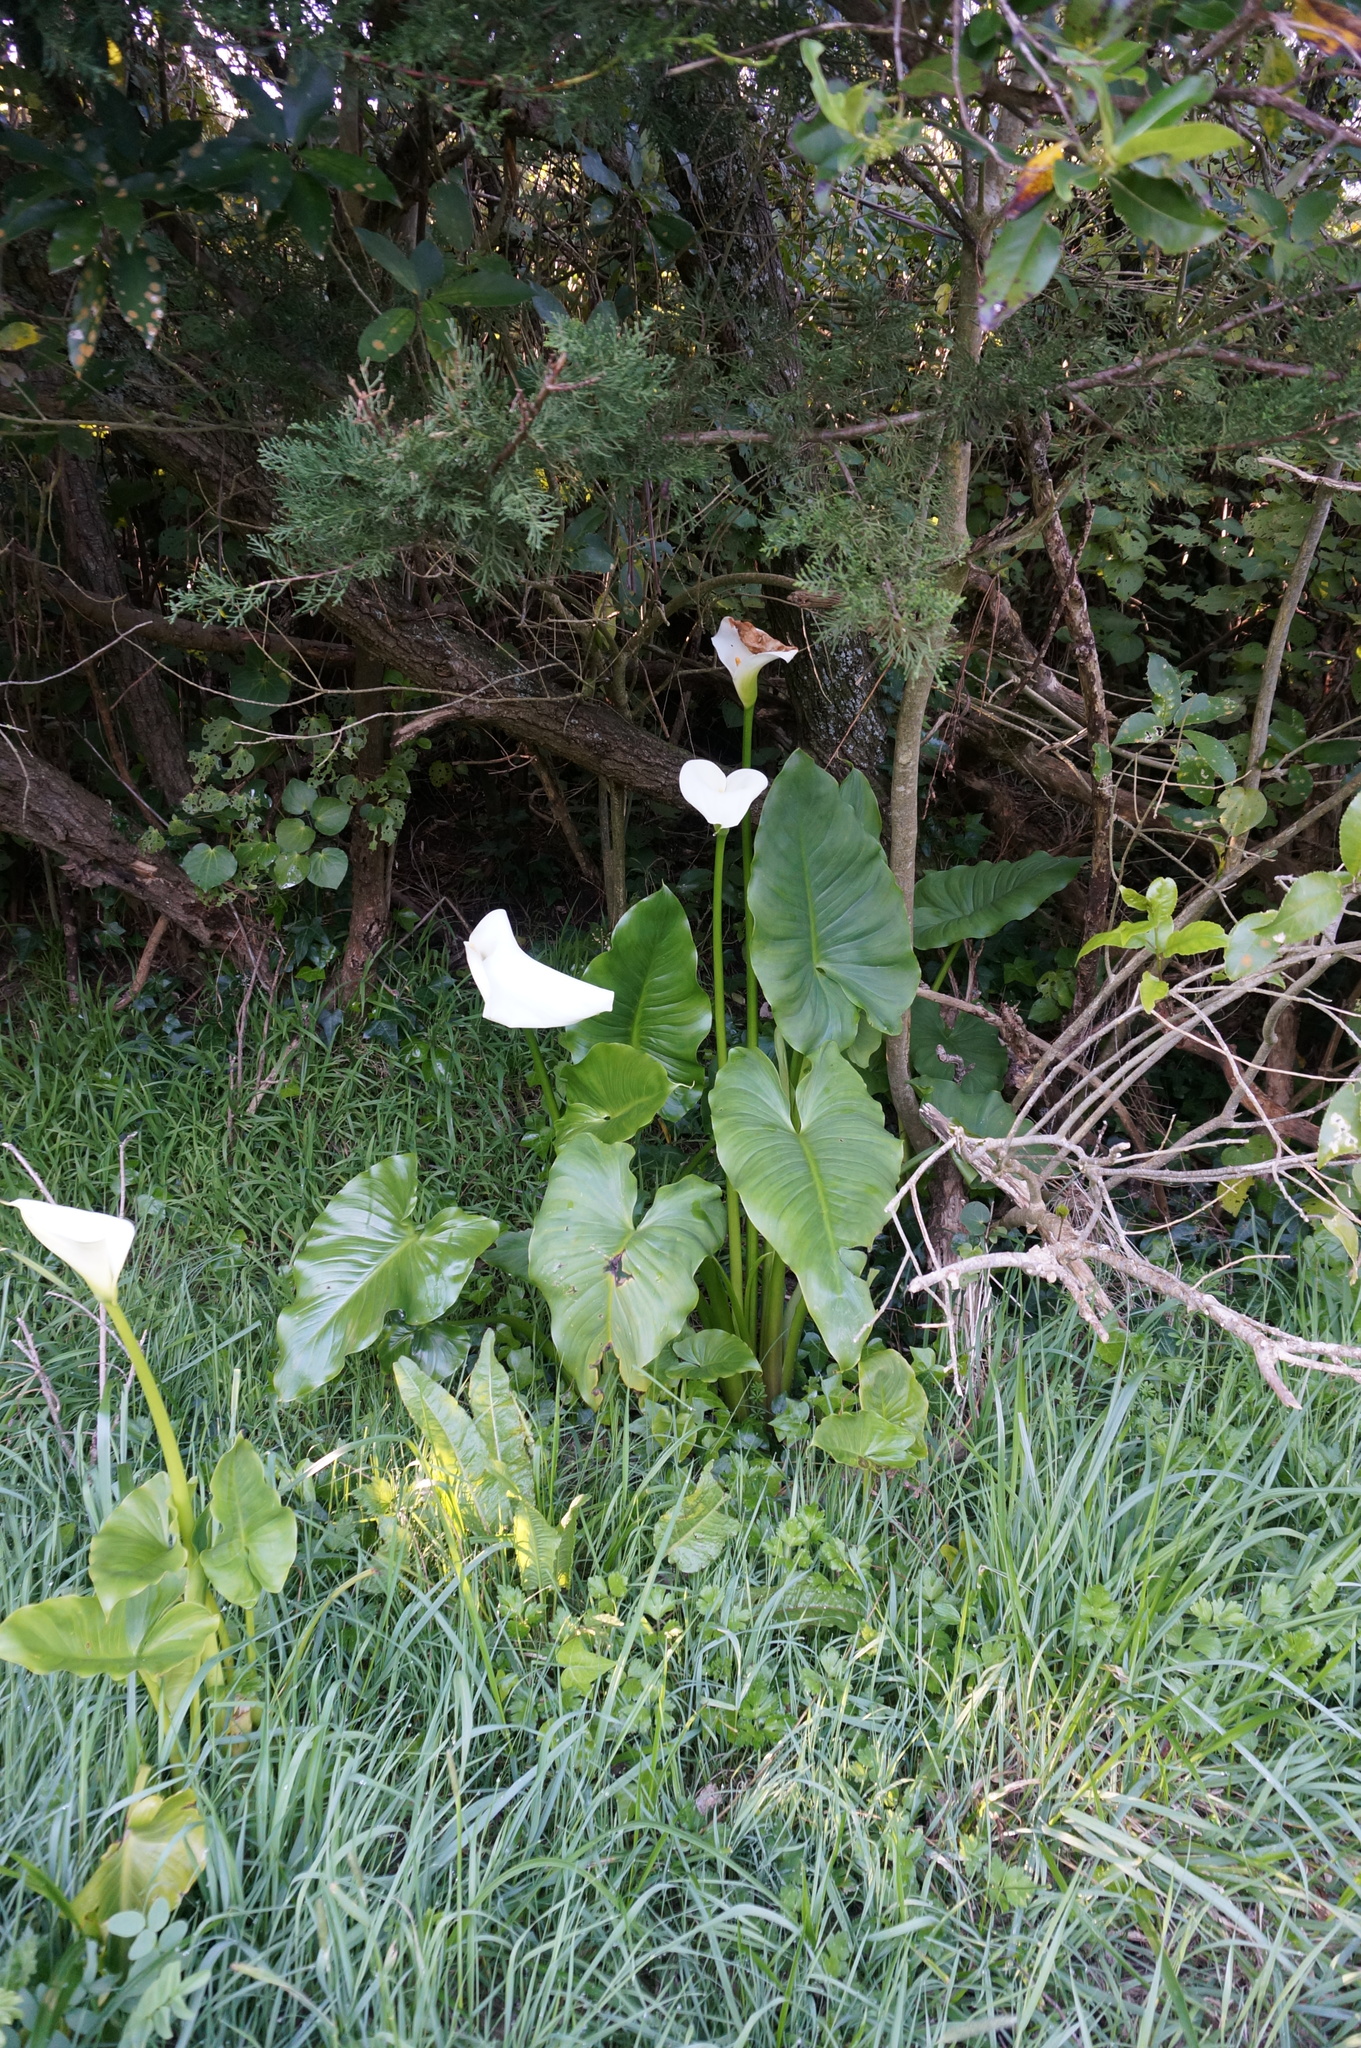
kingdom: Plantae
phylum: Tracheophyta
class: Liliopsida
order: Alismatales
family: Araceae
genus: Zantedeschia
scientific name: Zantedeschia aethiopica
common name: Altar-lily
